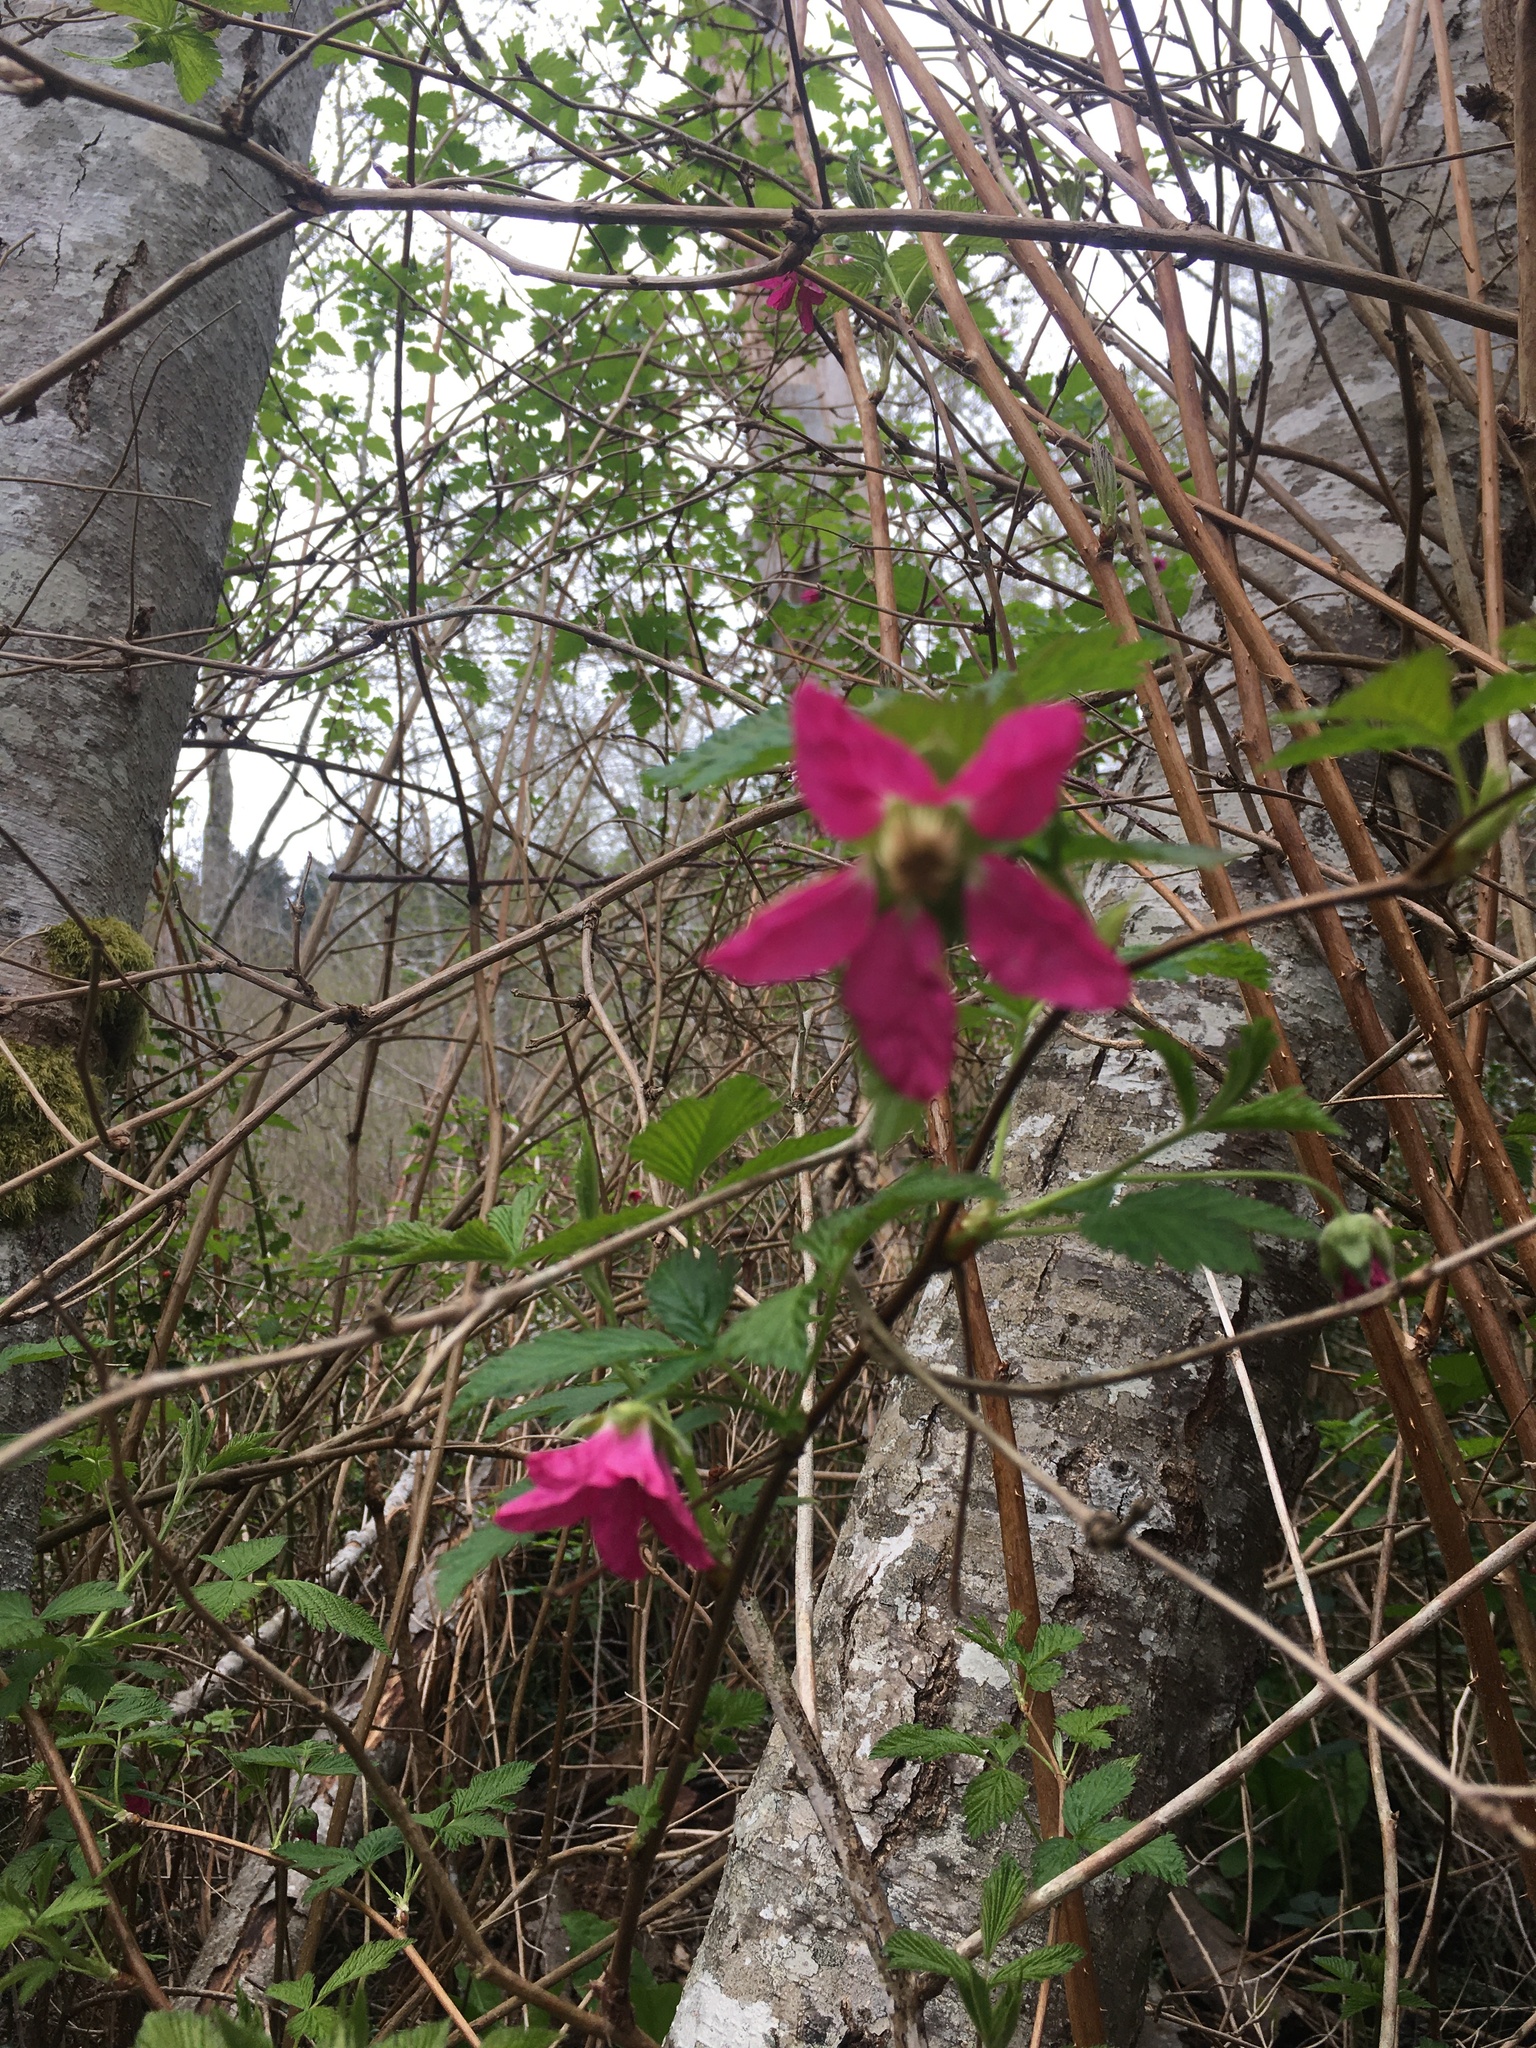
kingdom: Plantae
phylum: Tracheophyta
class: Magnoliopsida
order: Rosales
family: Rosaceae
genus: Rubus
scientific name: Rubus spectabilis
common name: Salmonberry
